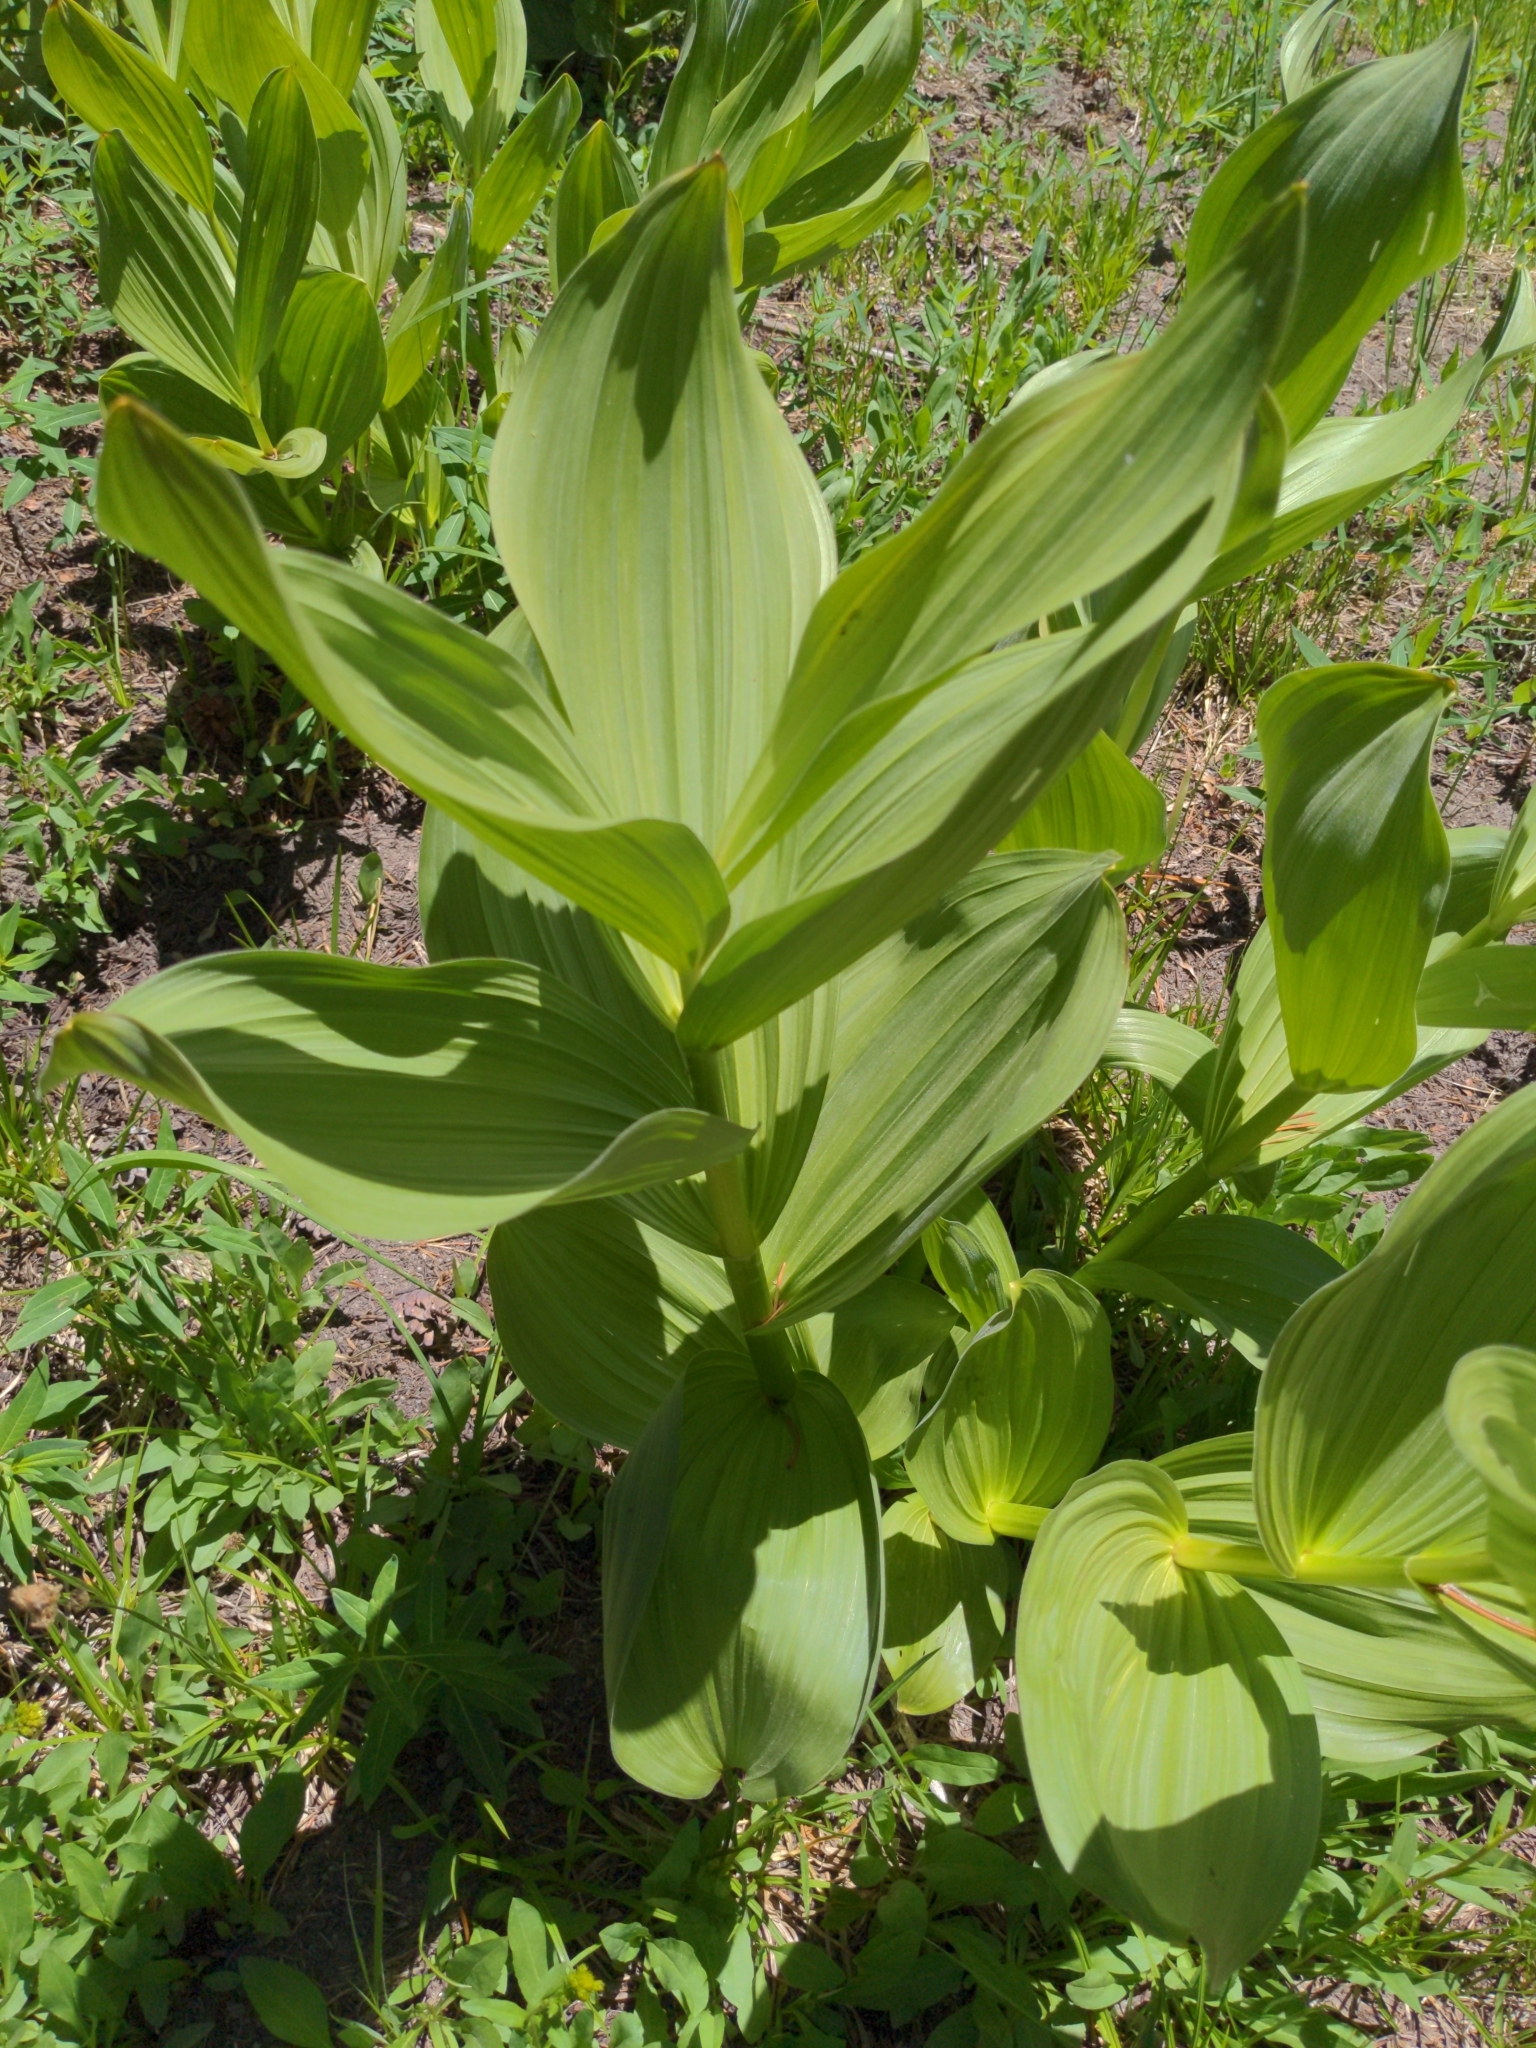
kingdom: Plantae
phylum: Tracheophyta
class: Liliopsida
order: Liliales
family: Melanthiaceae
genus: Veratrum
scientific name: Veratrum californicum
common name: California veratrum
